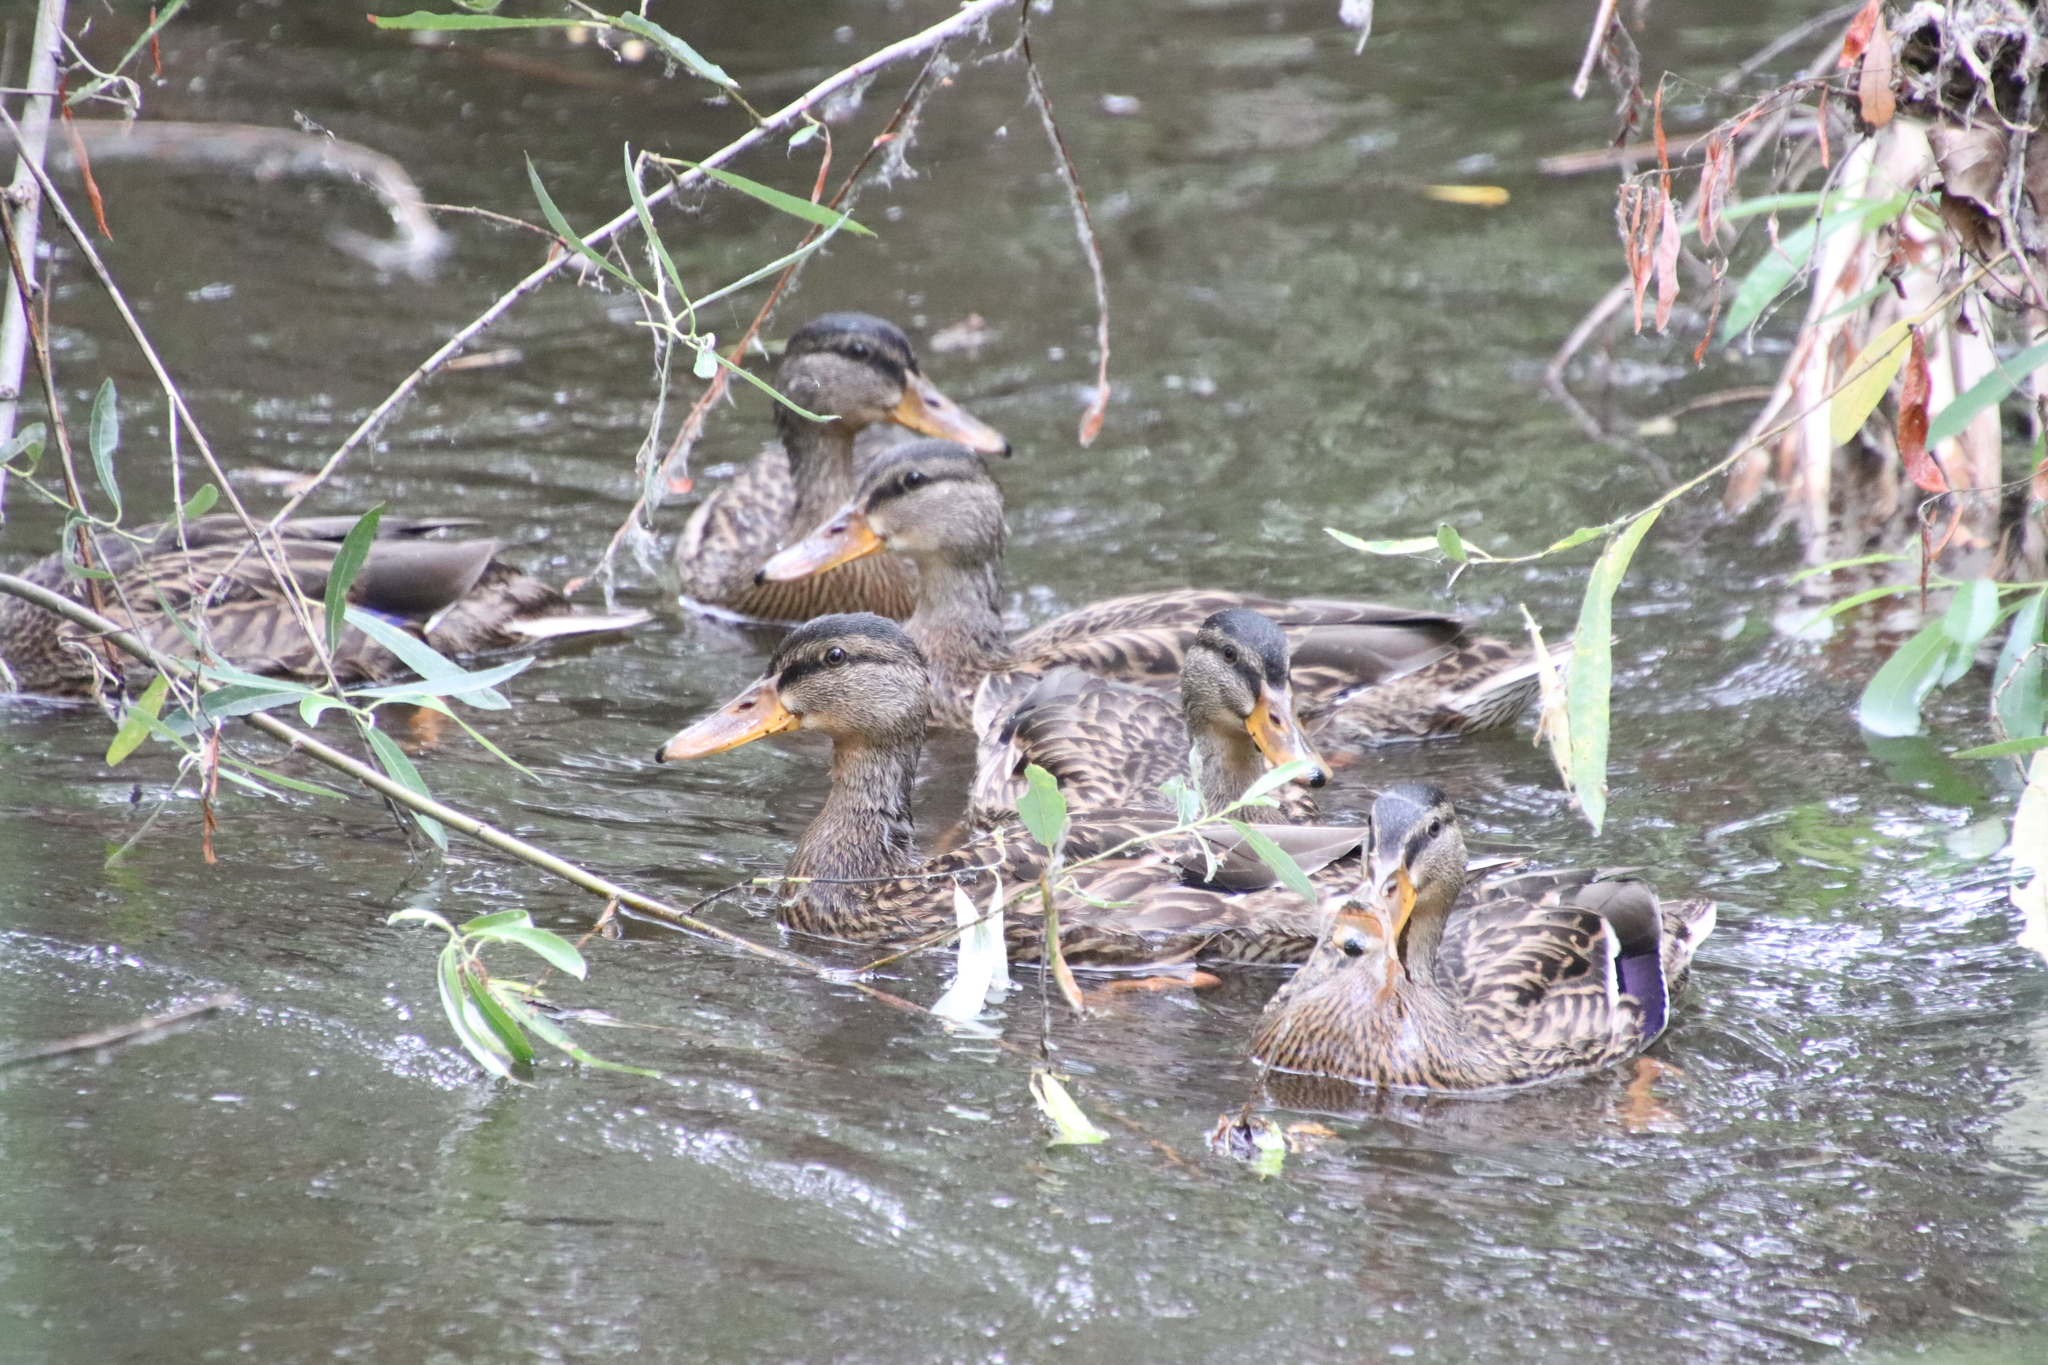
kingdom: Animalia
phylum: Chordata
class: Aves
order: Anseriformes
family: Anatidae
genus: Anas
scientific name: Anas platyrhynchos
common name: Mallard
